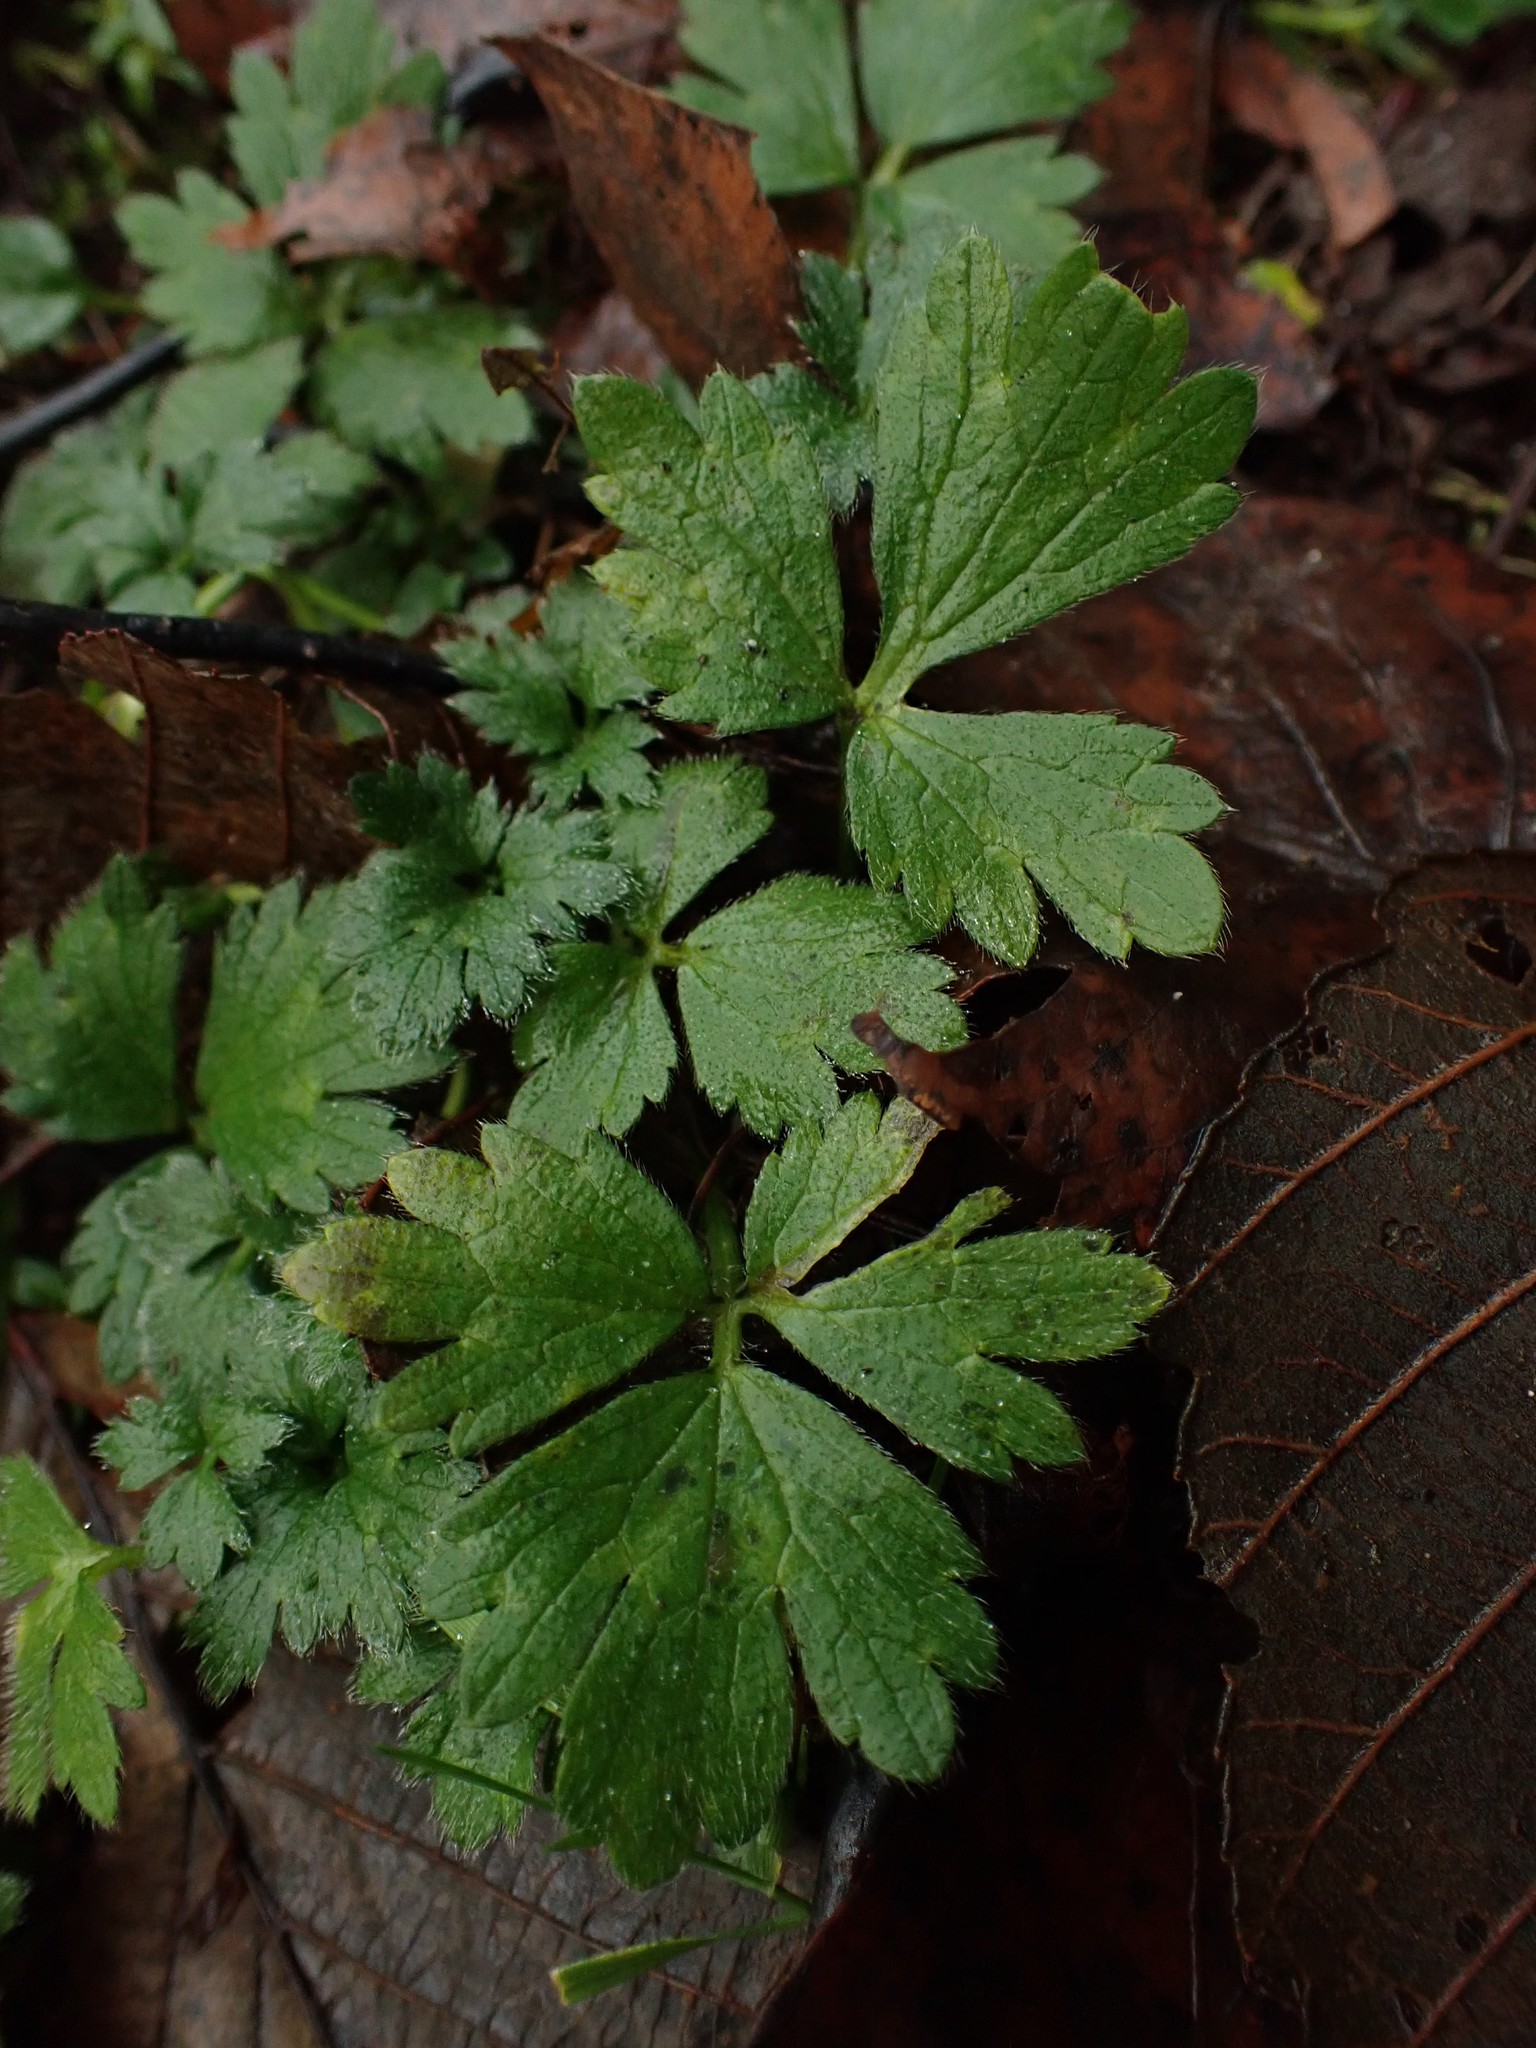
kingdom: Plantae
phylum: Tracheophyta
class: Magnoliopsida
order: Ranunculales
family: Ranunculaceae
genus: Ranunculus
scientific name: Ranunculus repens
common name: Creeping buttercup
